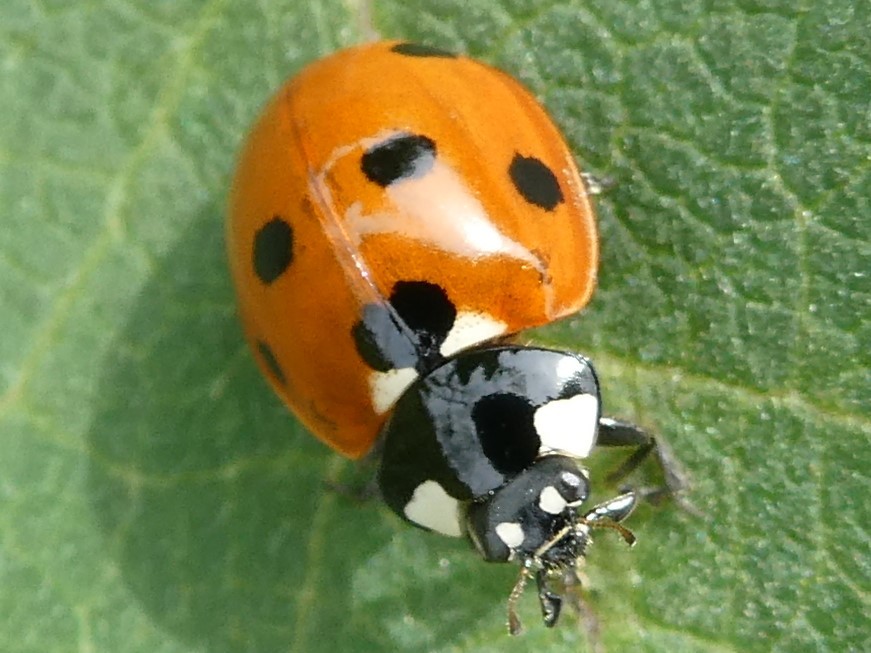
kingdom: Animalia
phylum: Arthropoda
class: Insecta
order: Coleoptera
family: Coccinellidae
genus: Coccinella
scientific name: Coccinella septempunctata
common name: Sevenspotted lady beetle
